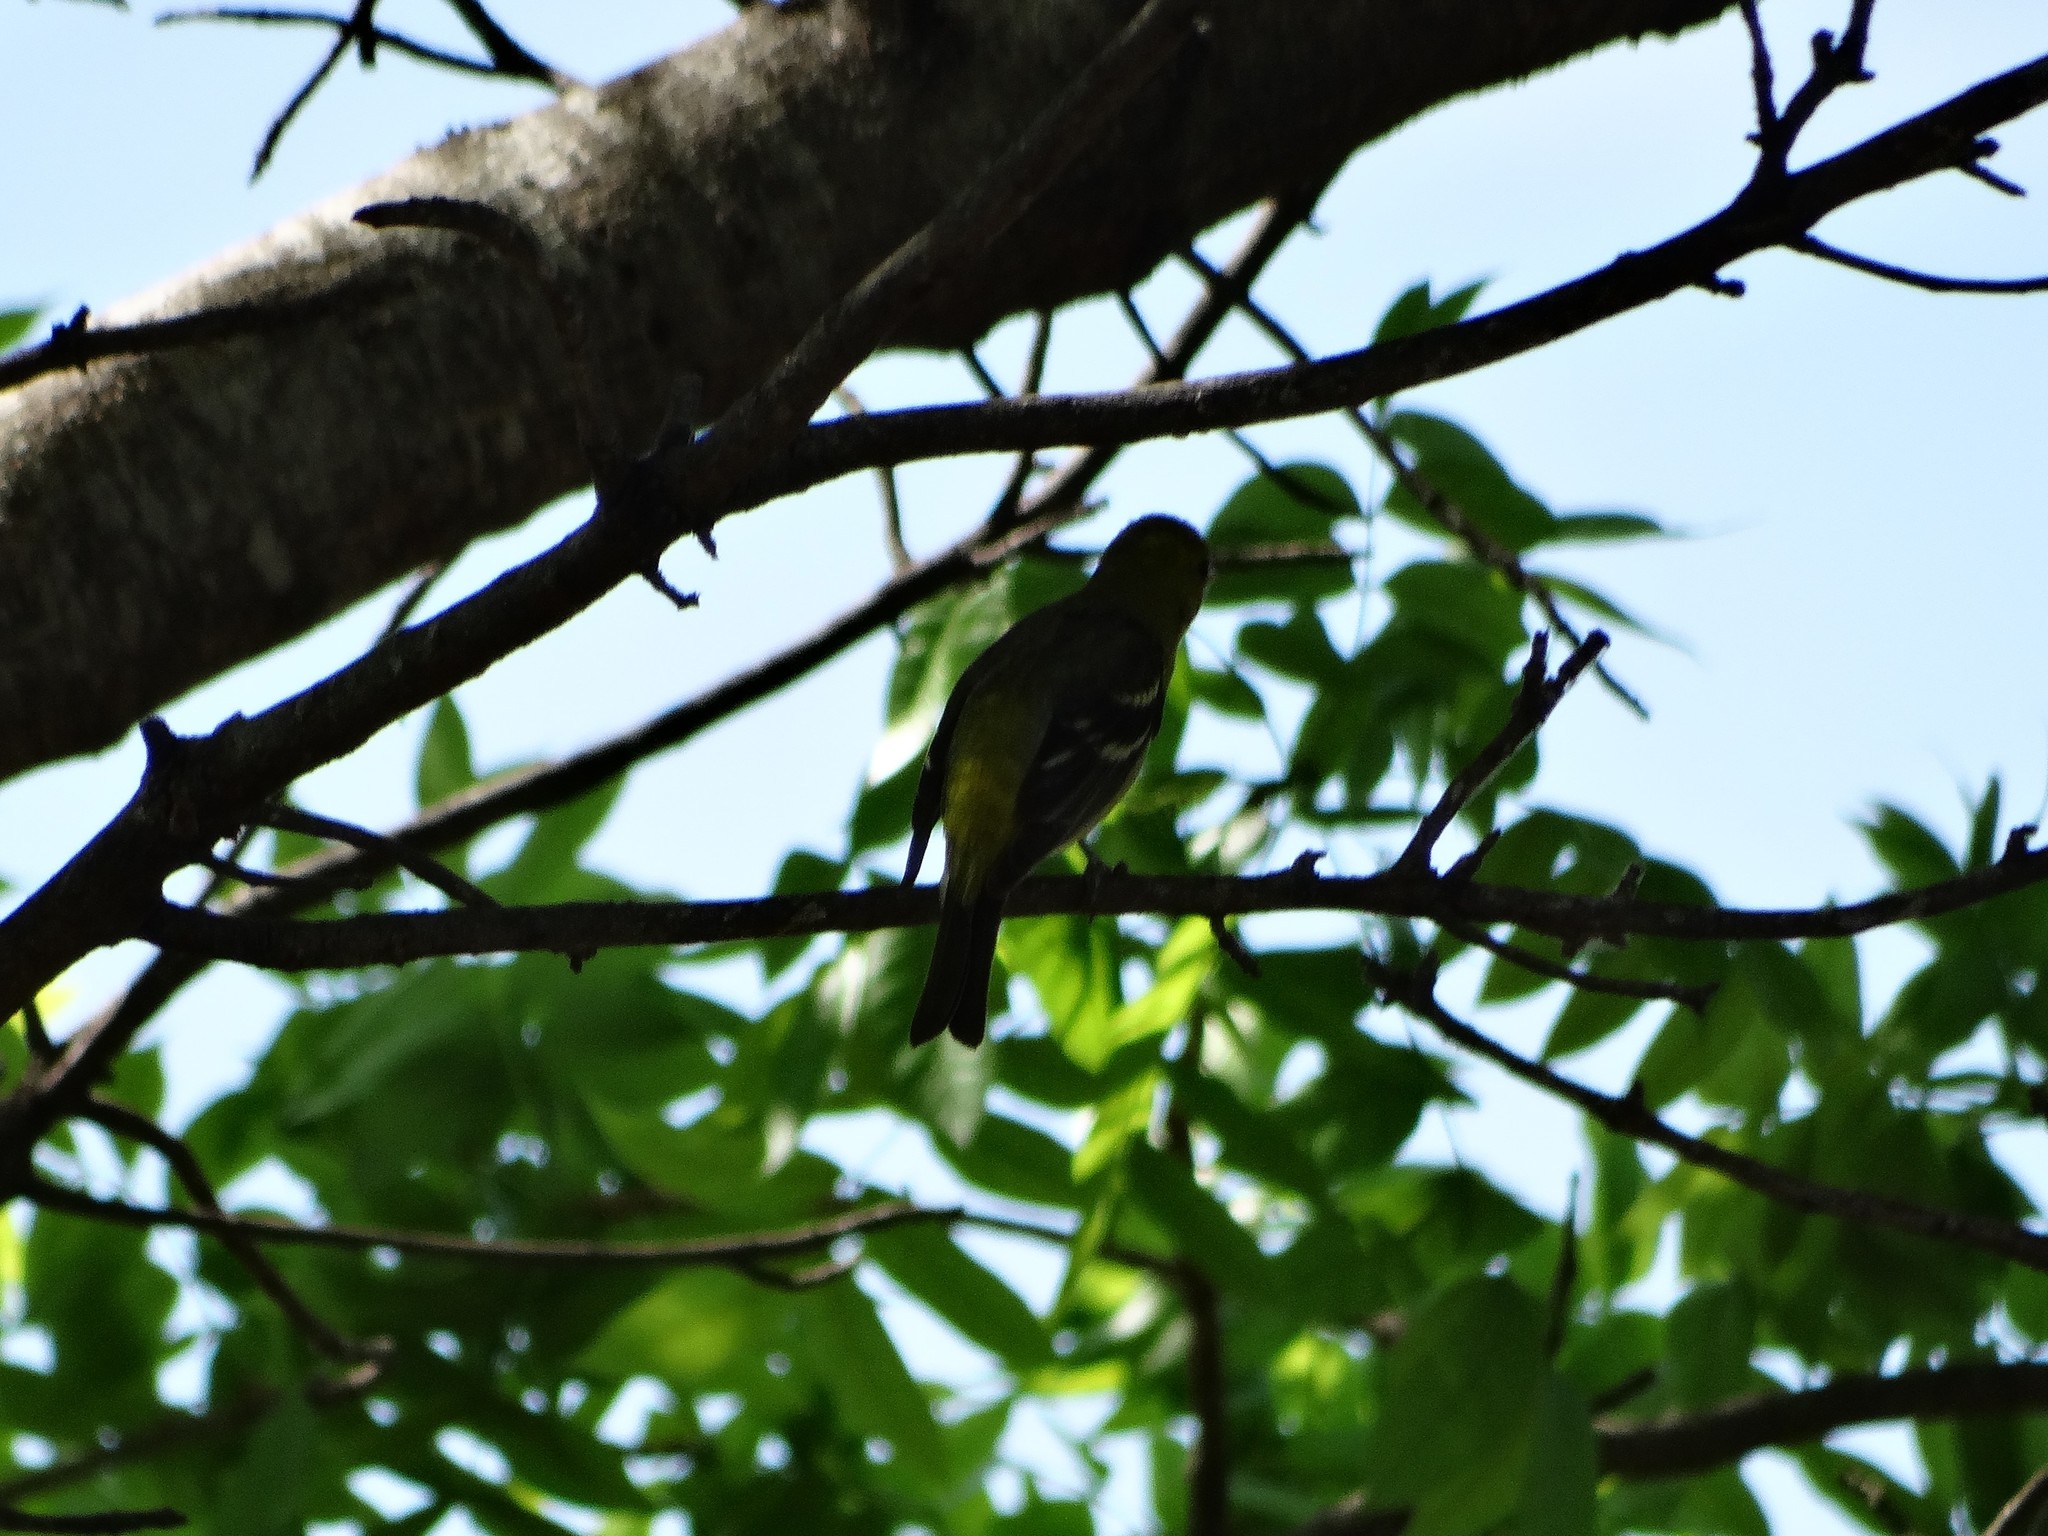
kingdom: Animalia
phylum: Chordata
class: Aves
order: Passeriformes
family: Cardinalidae
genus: Piranga
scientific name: Piranga ludoviciana
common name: Western tanager
